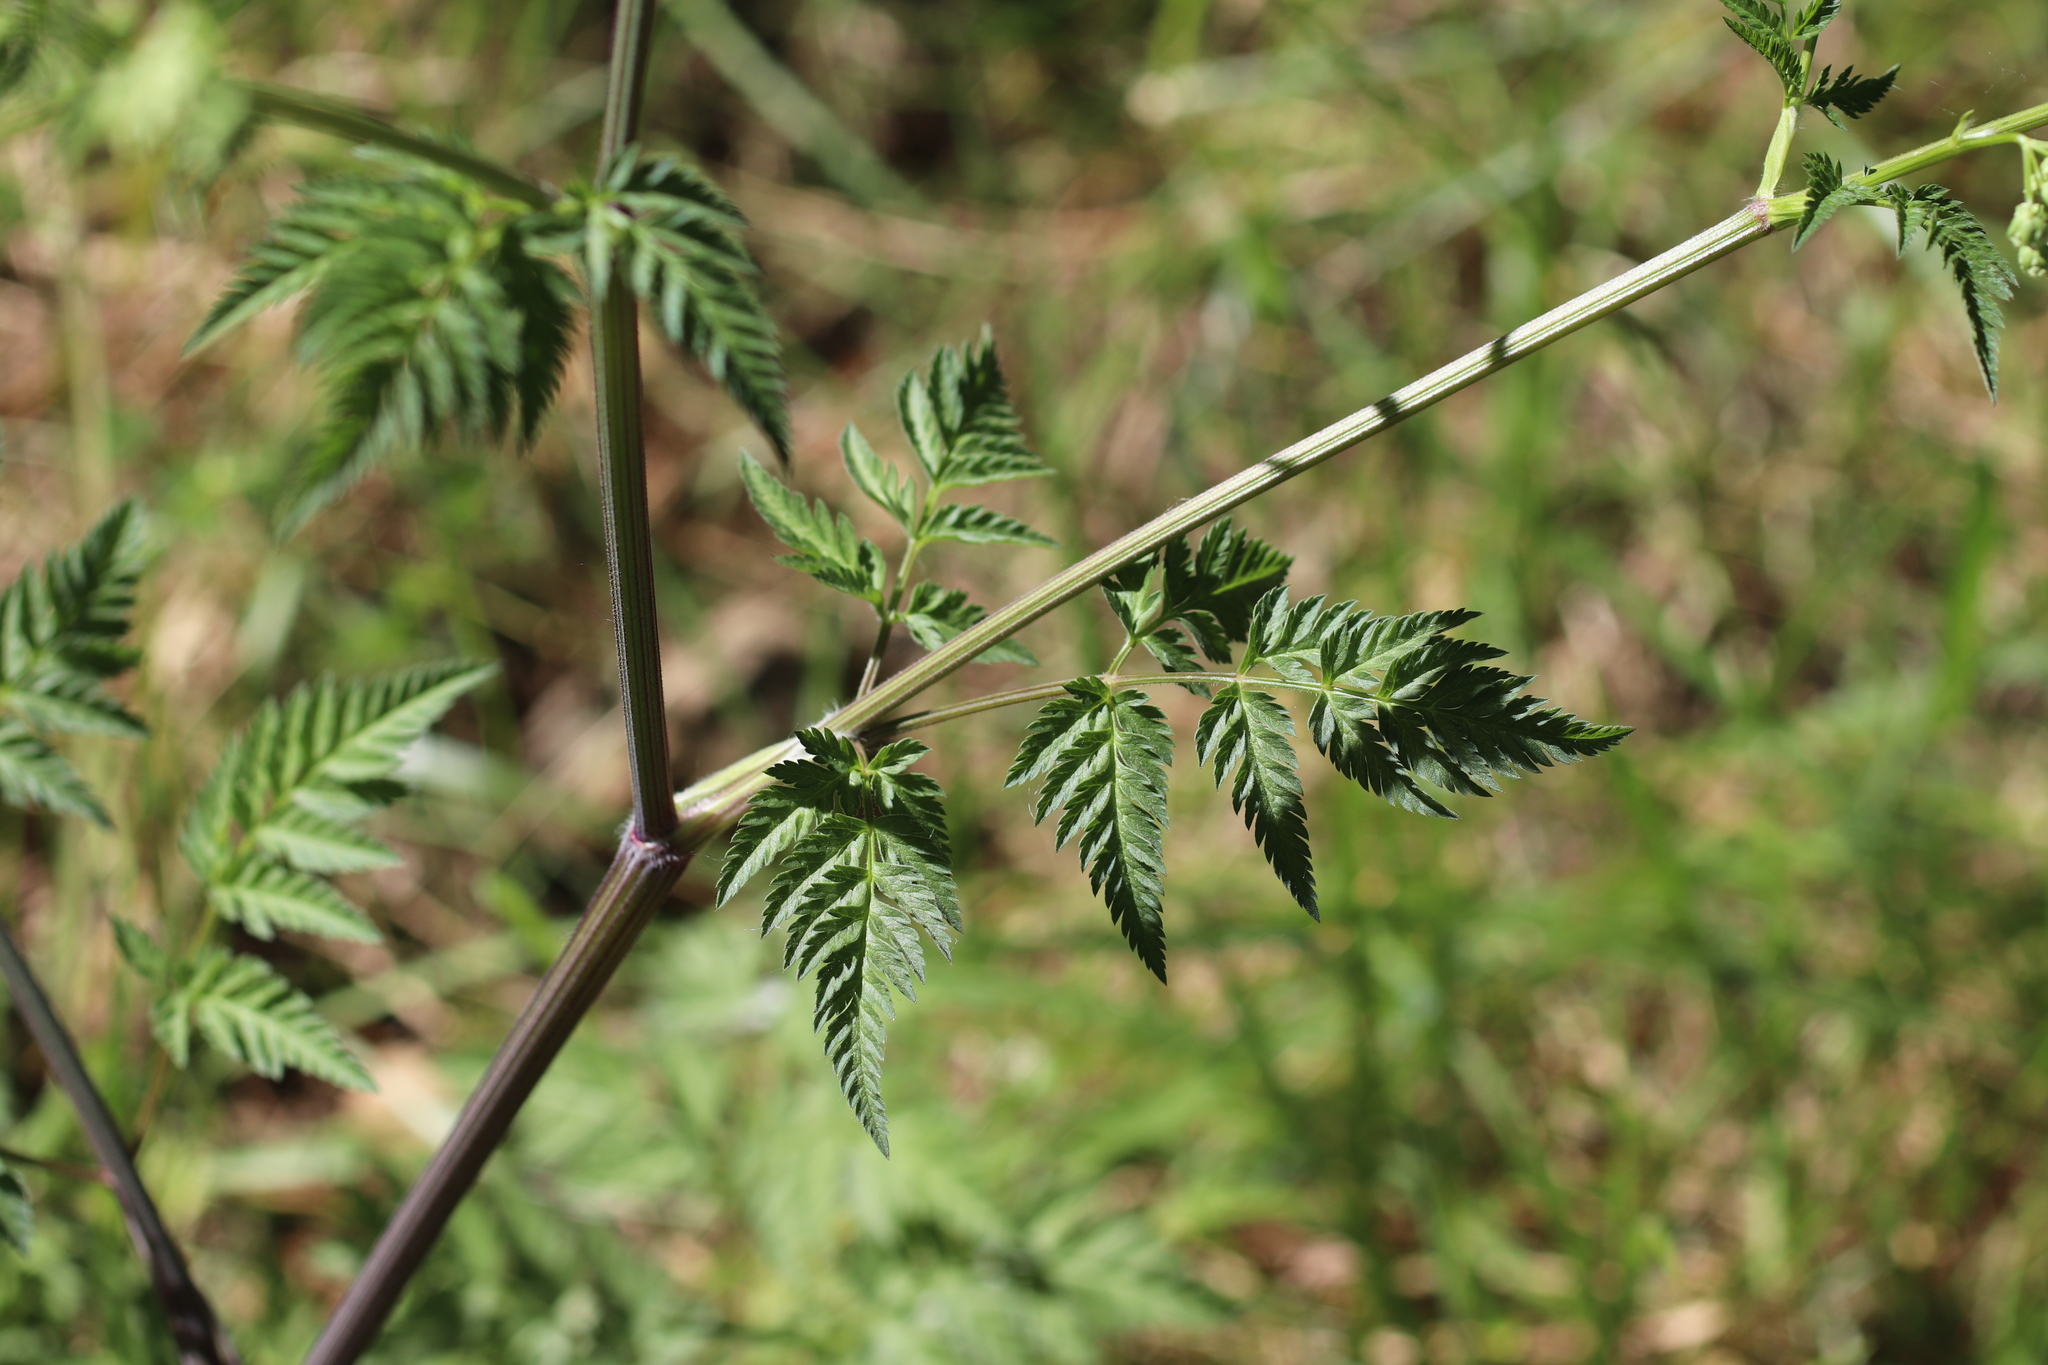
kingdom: Plantae
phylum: Tracheophyta
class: Magnoliopsida
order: Apiales
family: Apiaceae
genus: Anthriscus
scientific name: Anthriscus sylvestris
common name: Cow parsley
